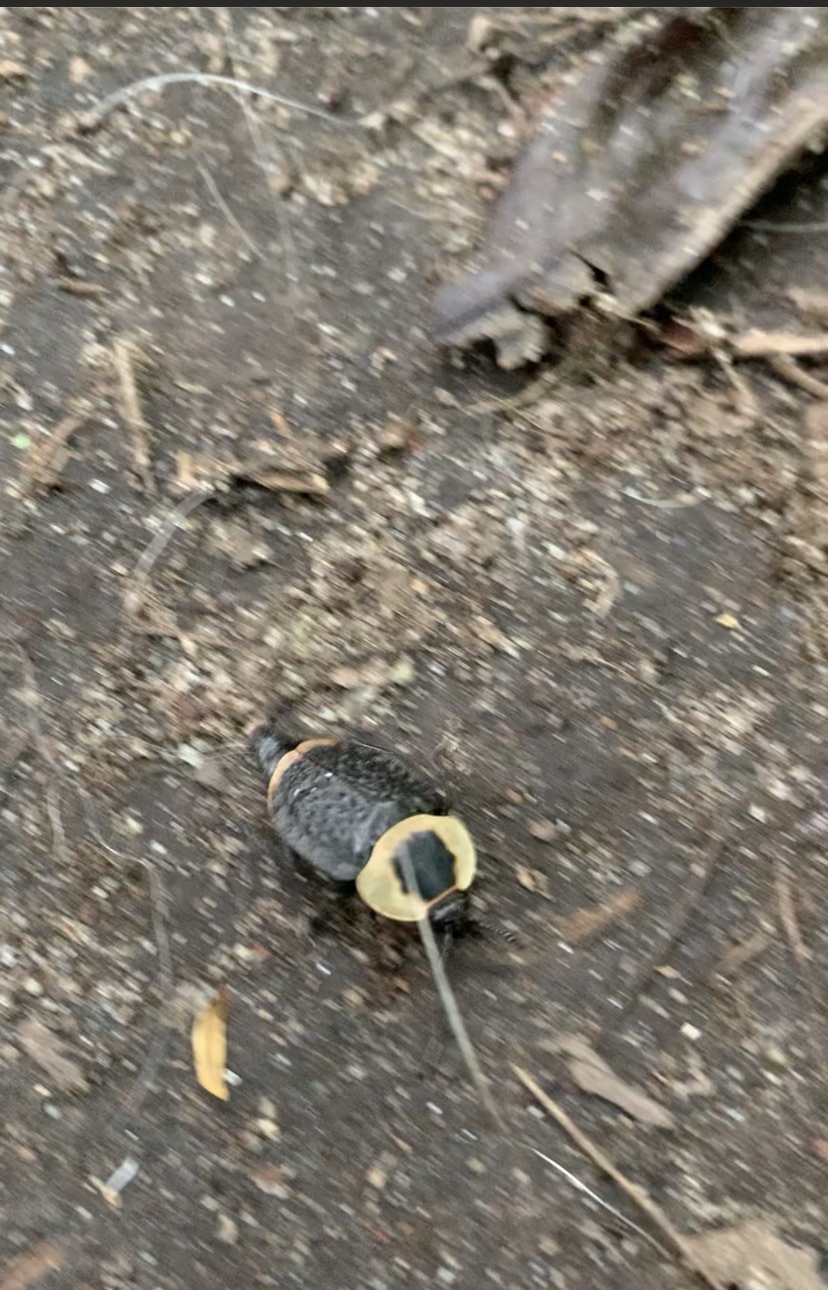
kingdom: Animalia
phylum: Arthropoda
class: Insecta
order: Coleoptera
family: Staphylinidae
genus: Necrophila
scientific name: Necrophila americana
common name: American carrion beetle
